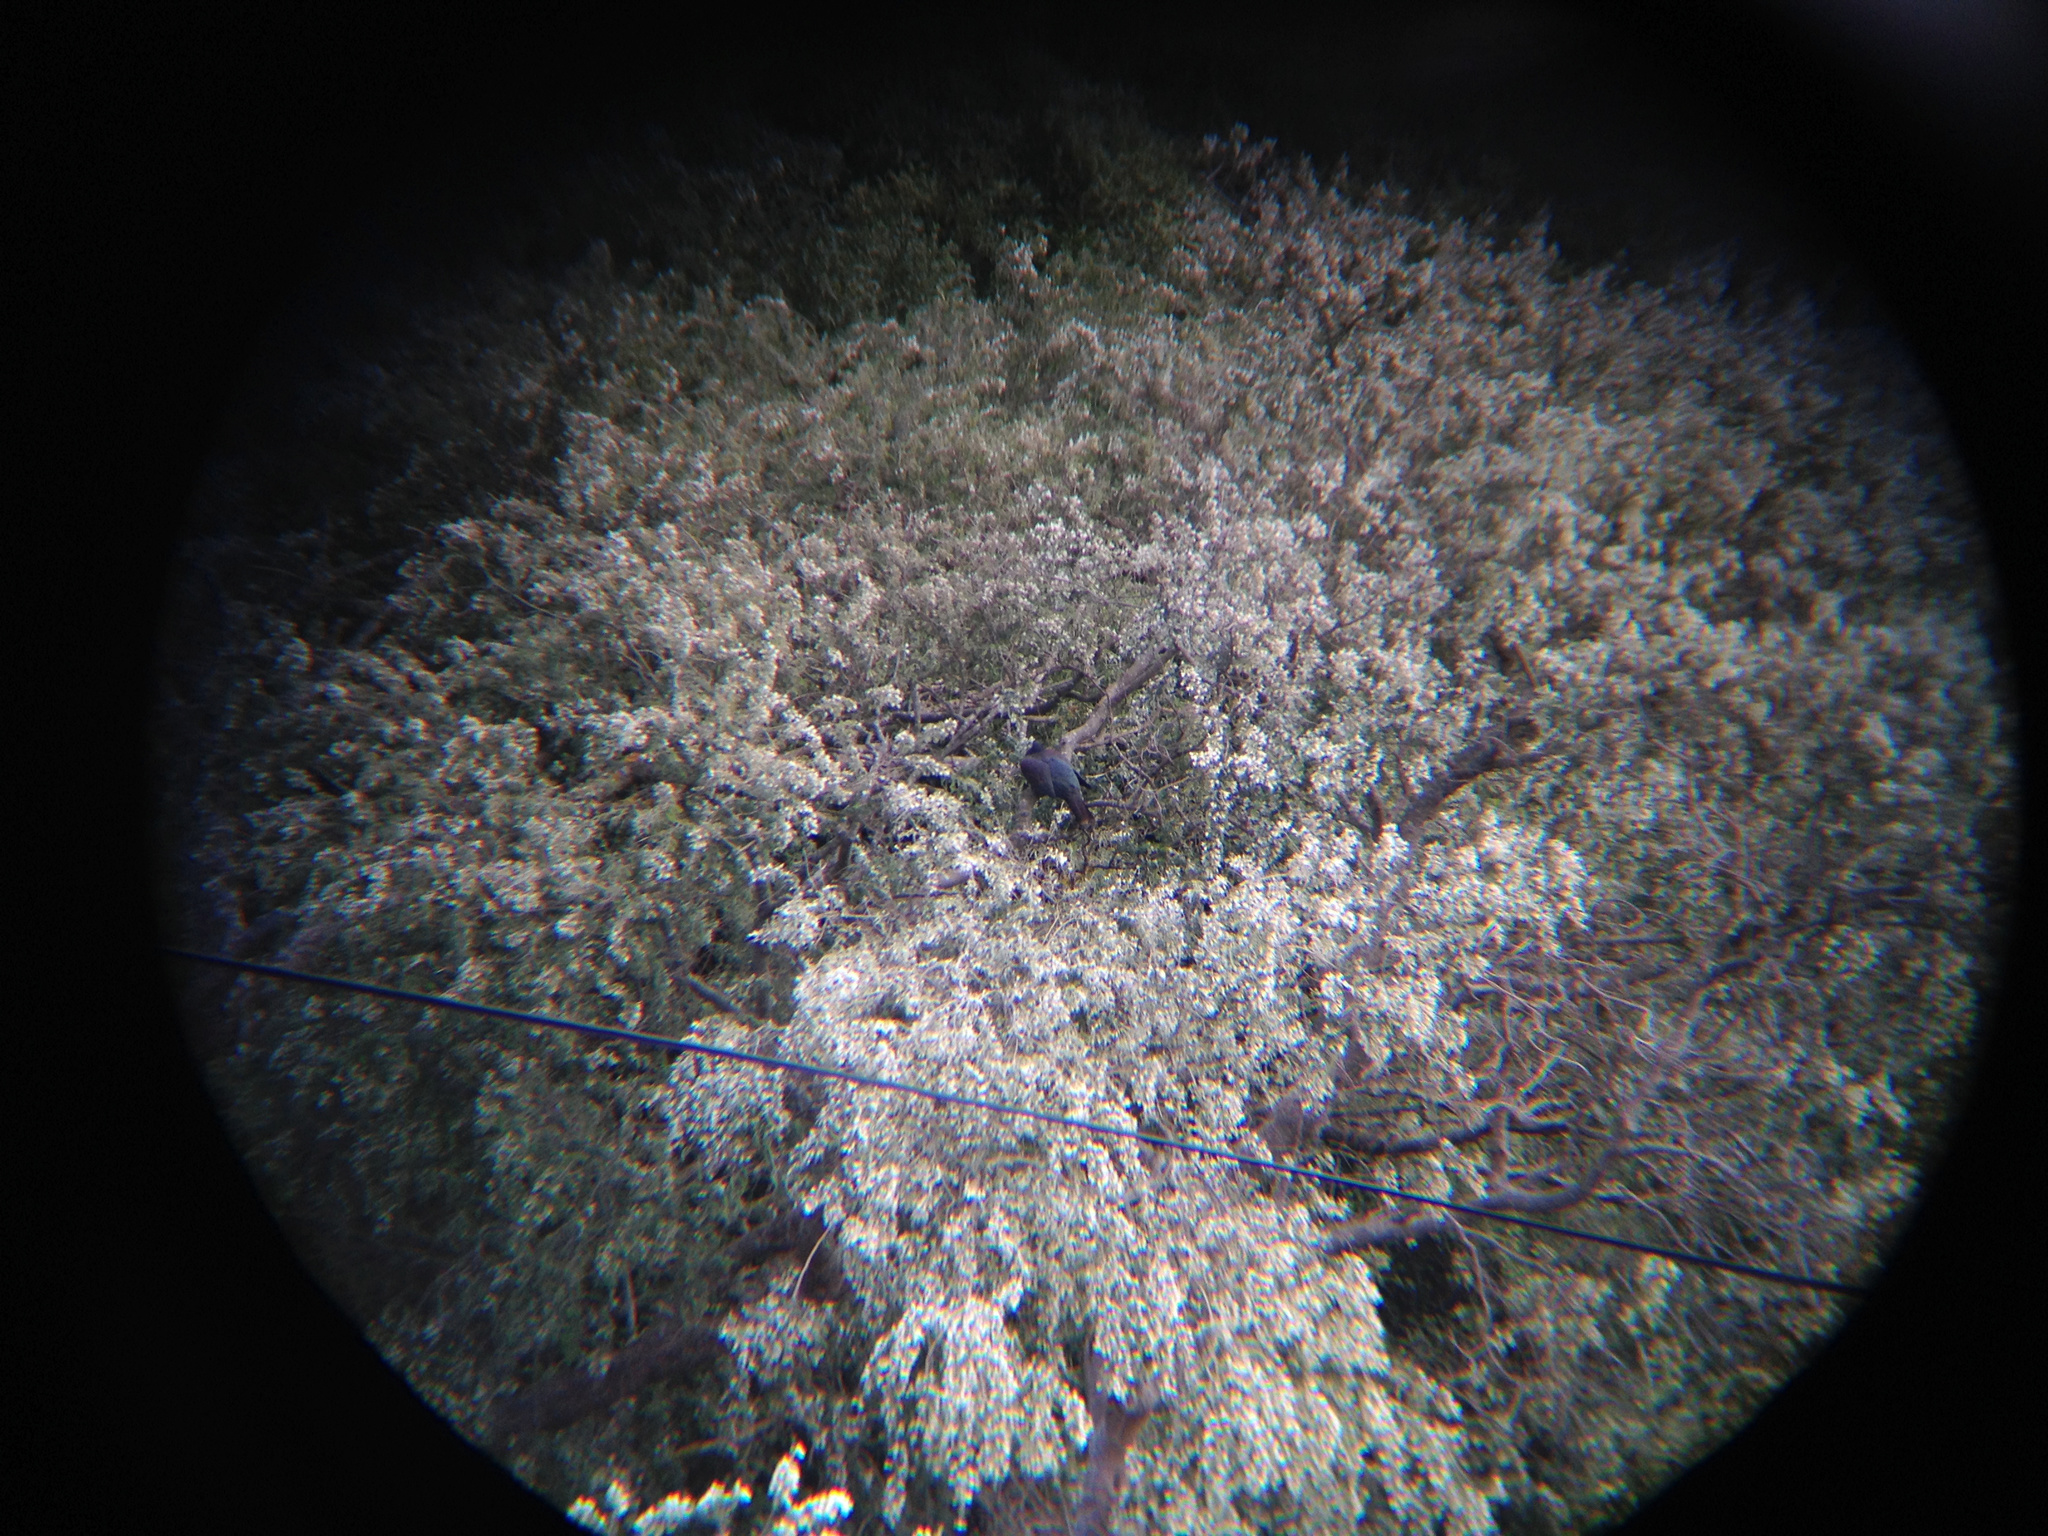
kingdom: Animalia
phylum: Chordata
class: Aves
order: Columbiformes
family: Columbidae
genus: Hemiphaga
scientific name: Hemiphaga novaeseelandiae
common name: New zealand pigeon
